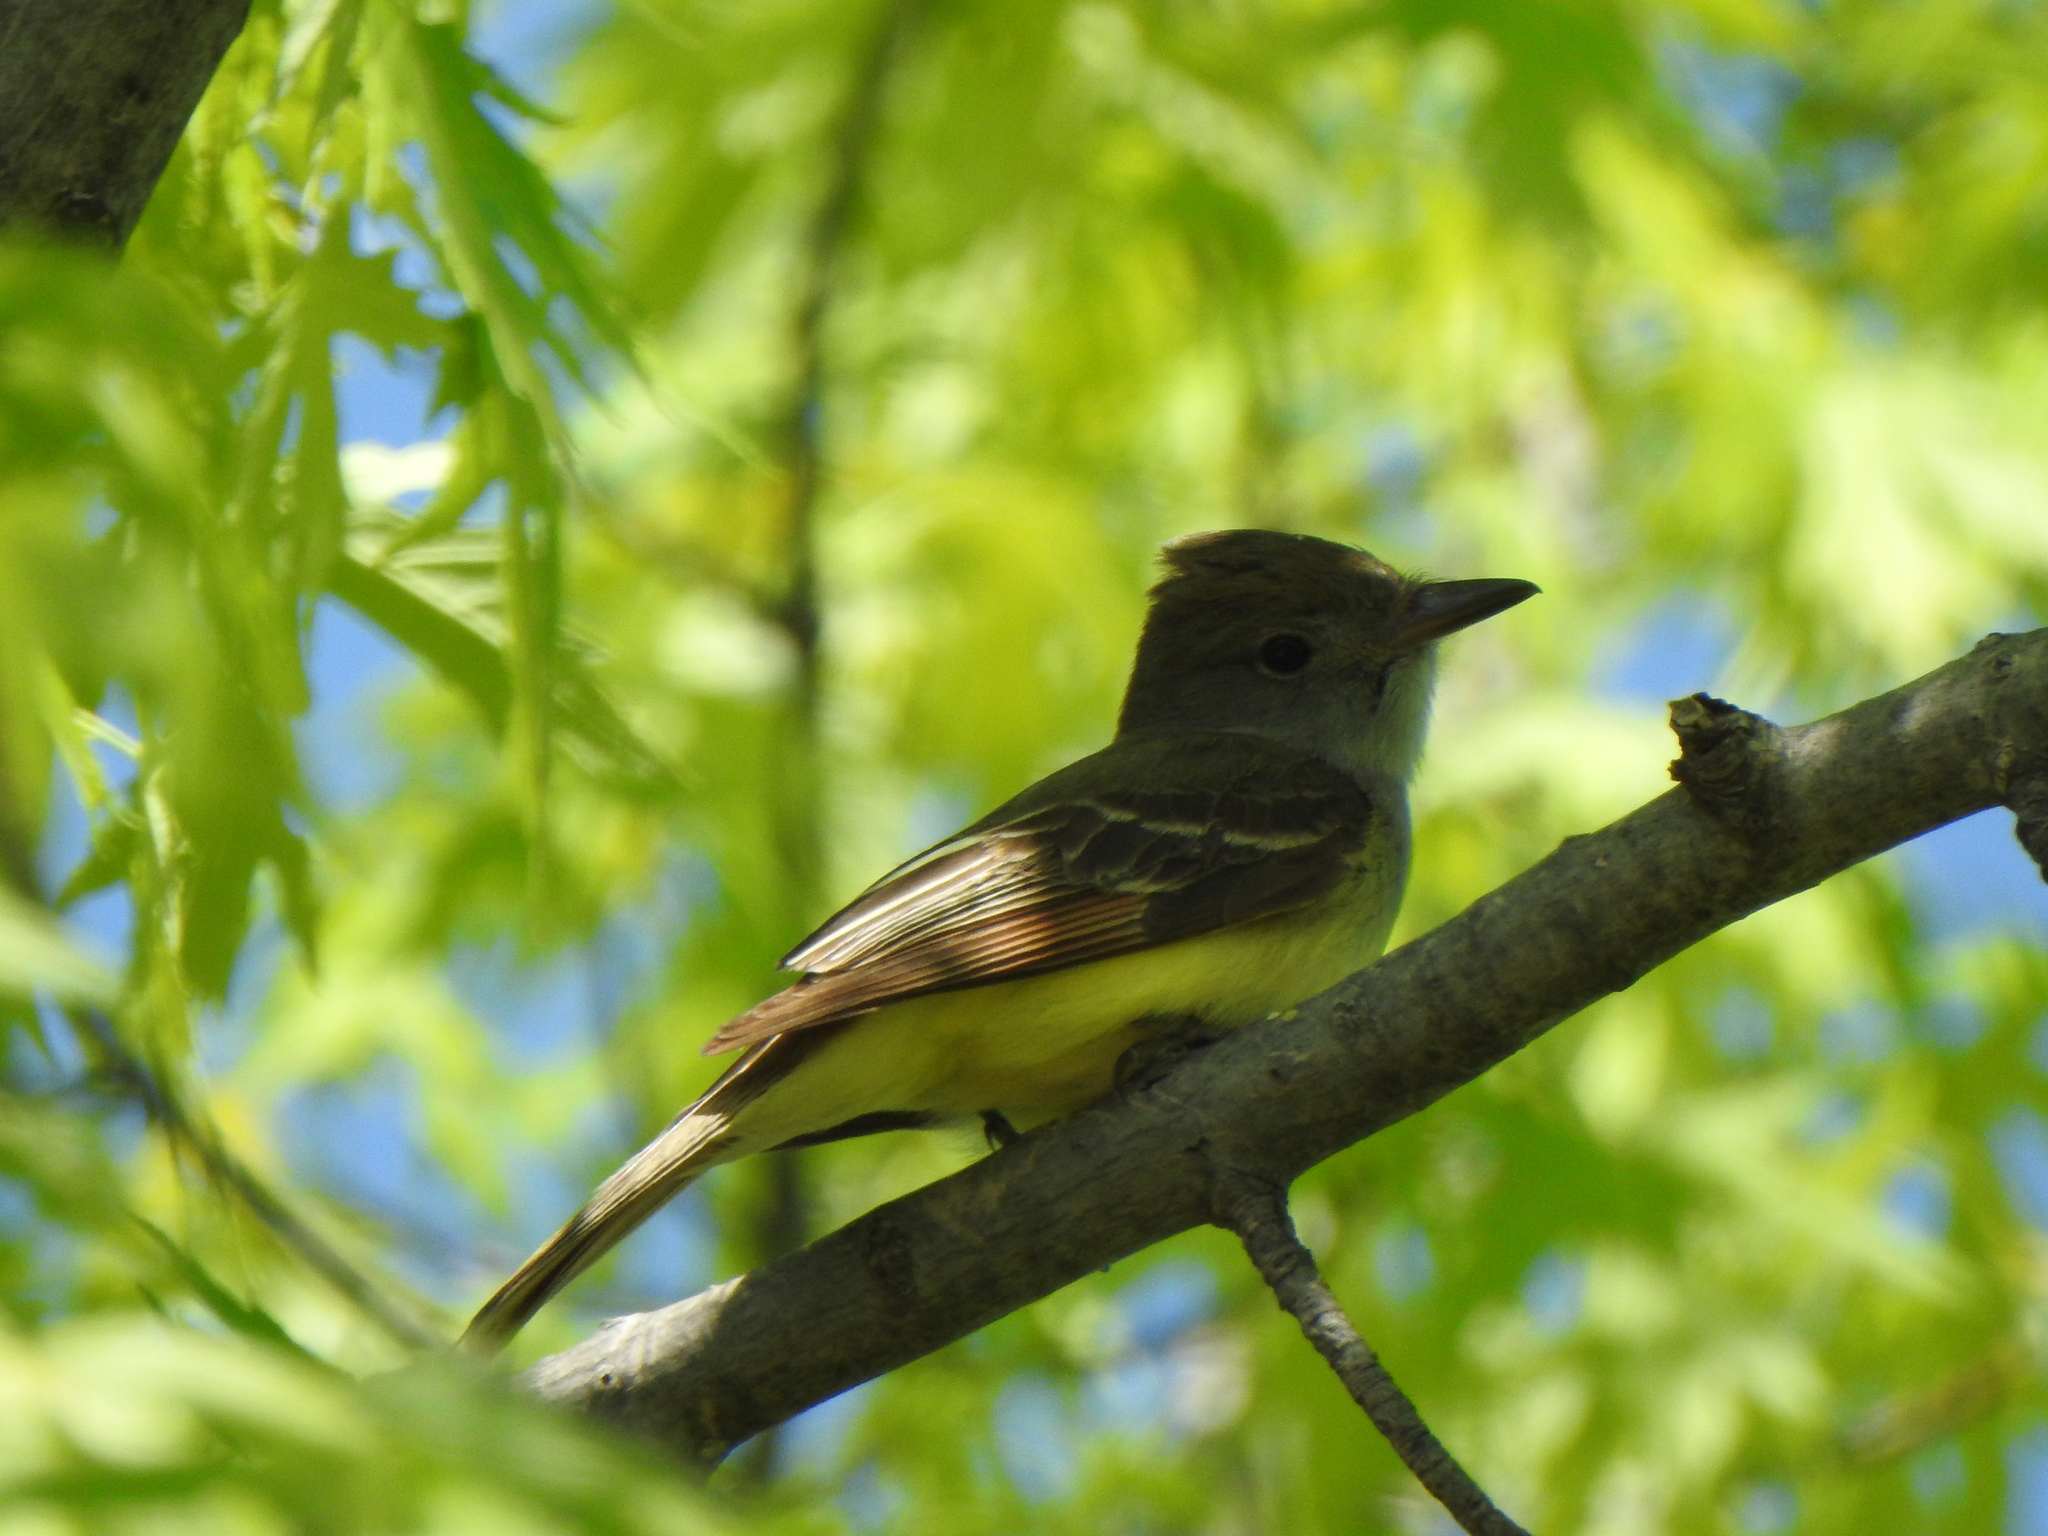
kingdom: Animalia
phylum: Chordata
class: Aves
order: Passeriformes
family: Tyrannidae
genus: Myiarchus
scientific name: Myiarchus crinitus
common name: Great crested flycatcher
